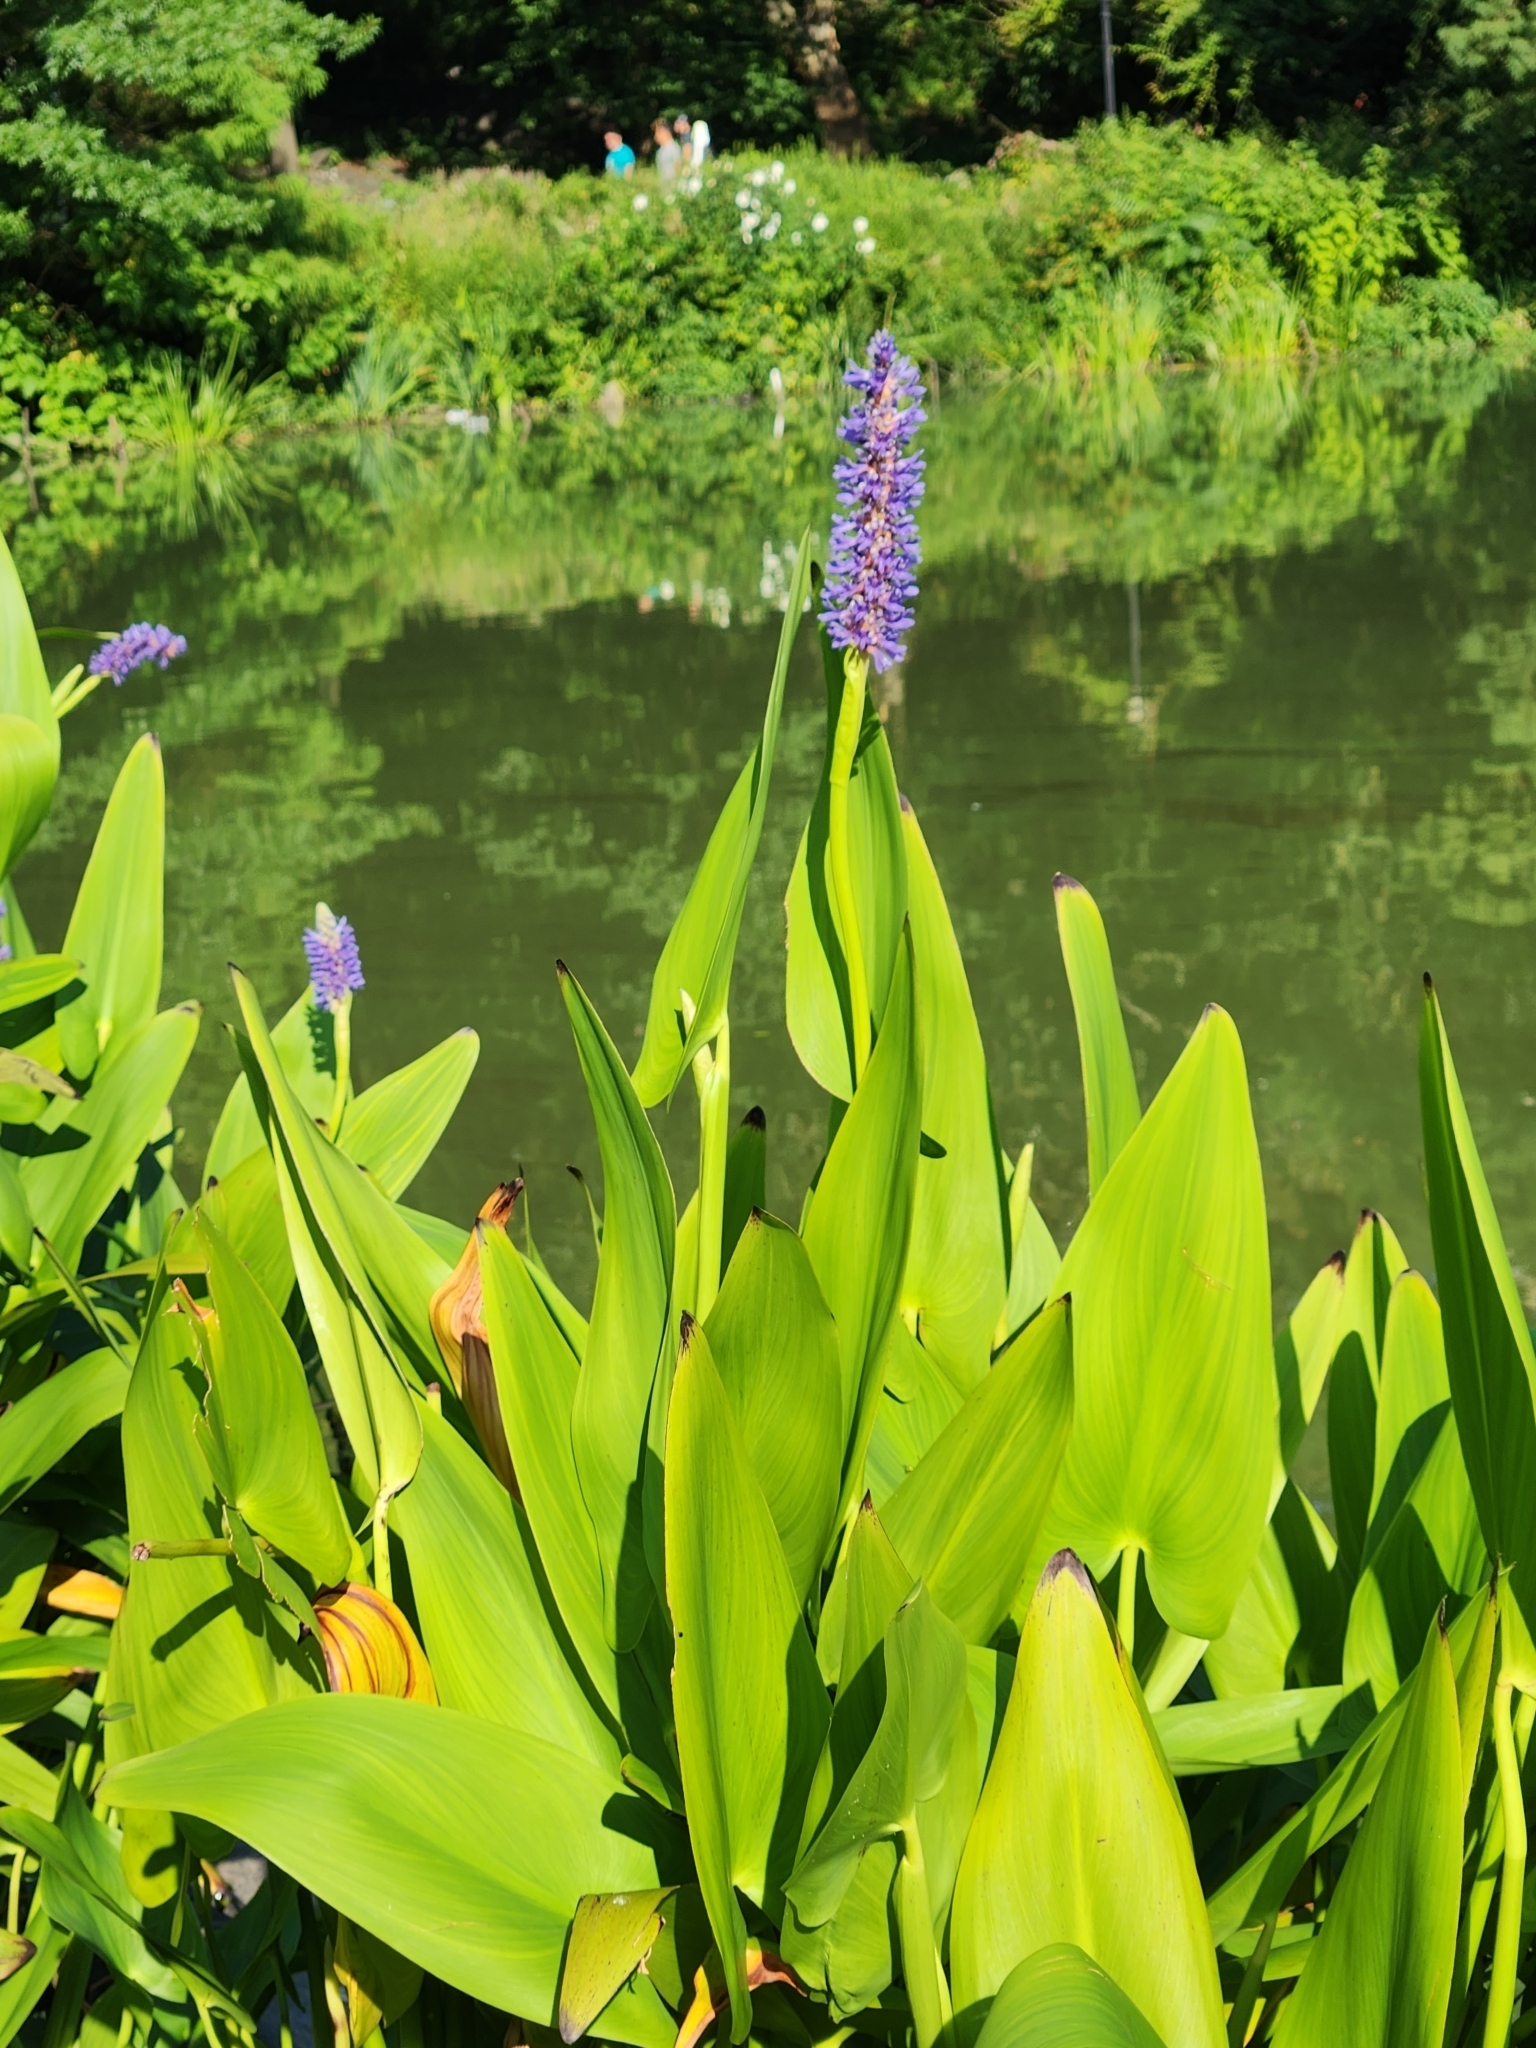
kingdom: Plantae
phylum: Tracheophyta
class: Liliopsida
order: Commelinales
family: Pontederiaceae
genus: Pontederia
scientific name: Pontederia cordata
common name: Pickerelweed
